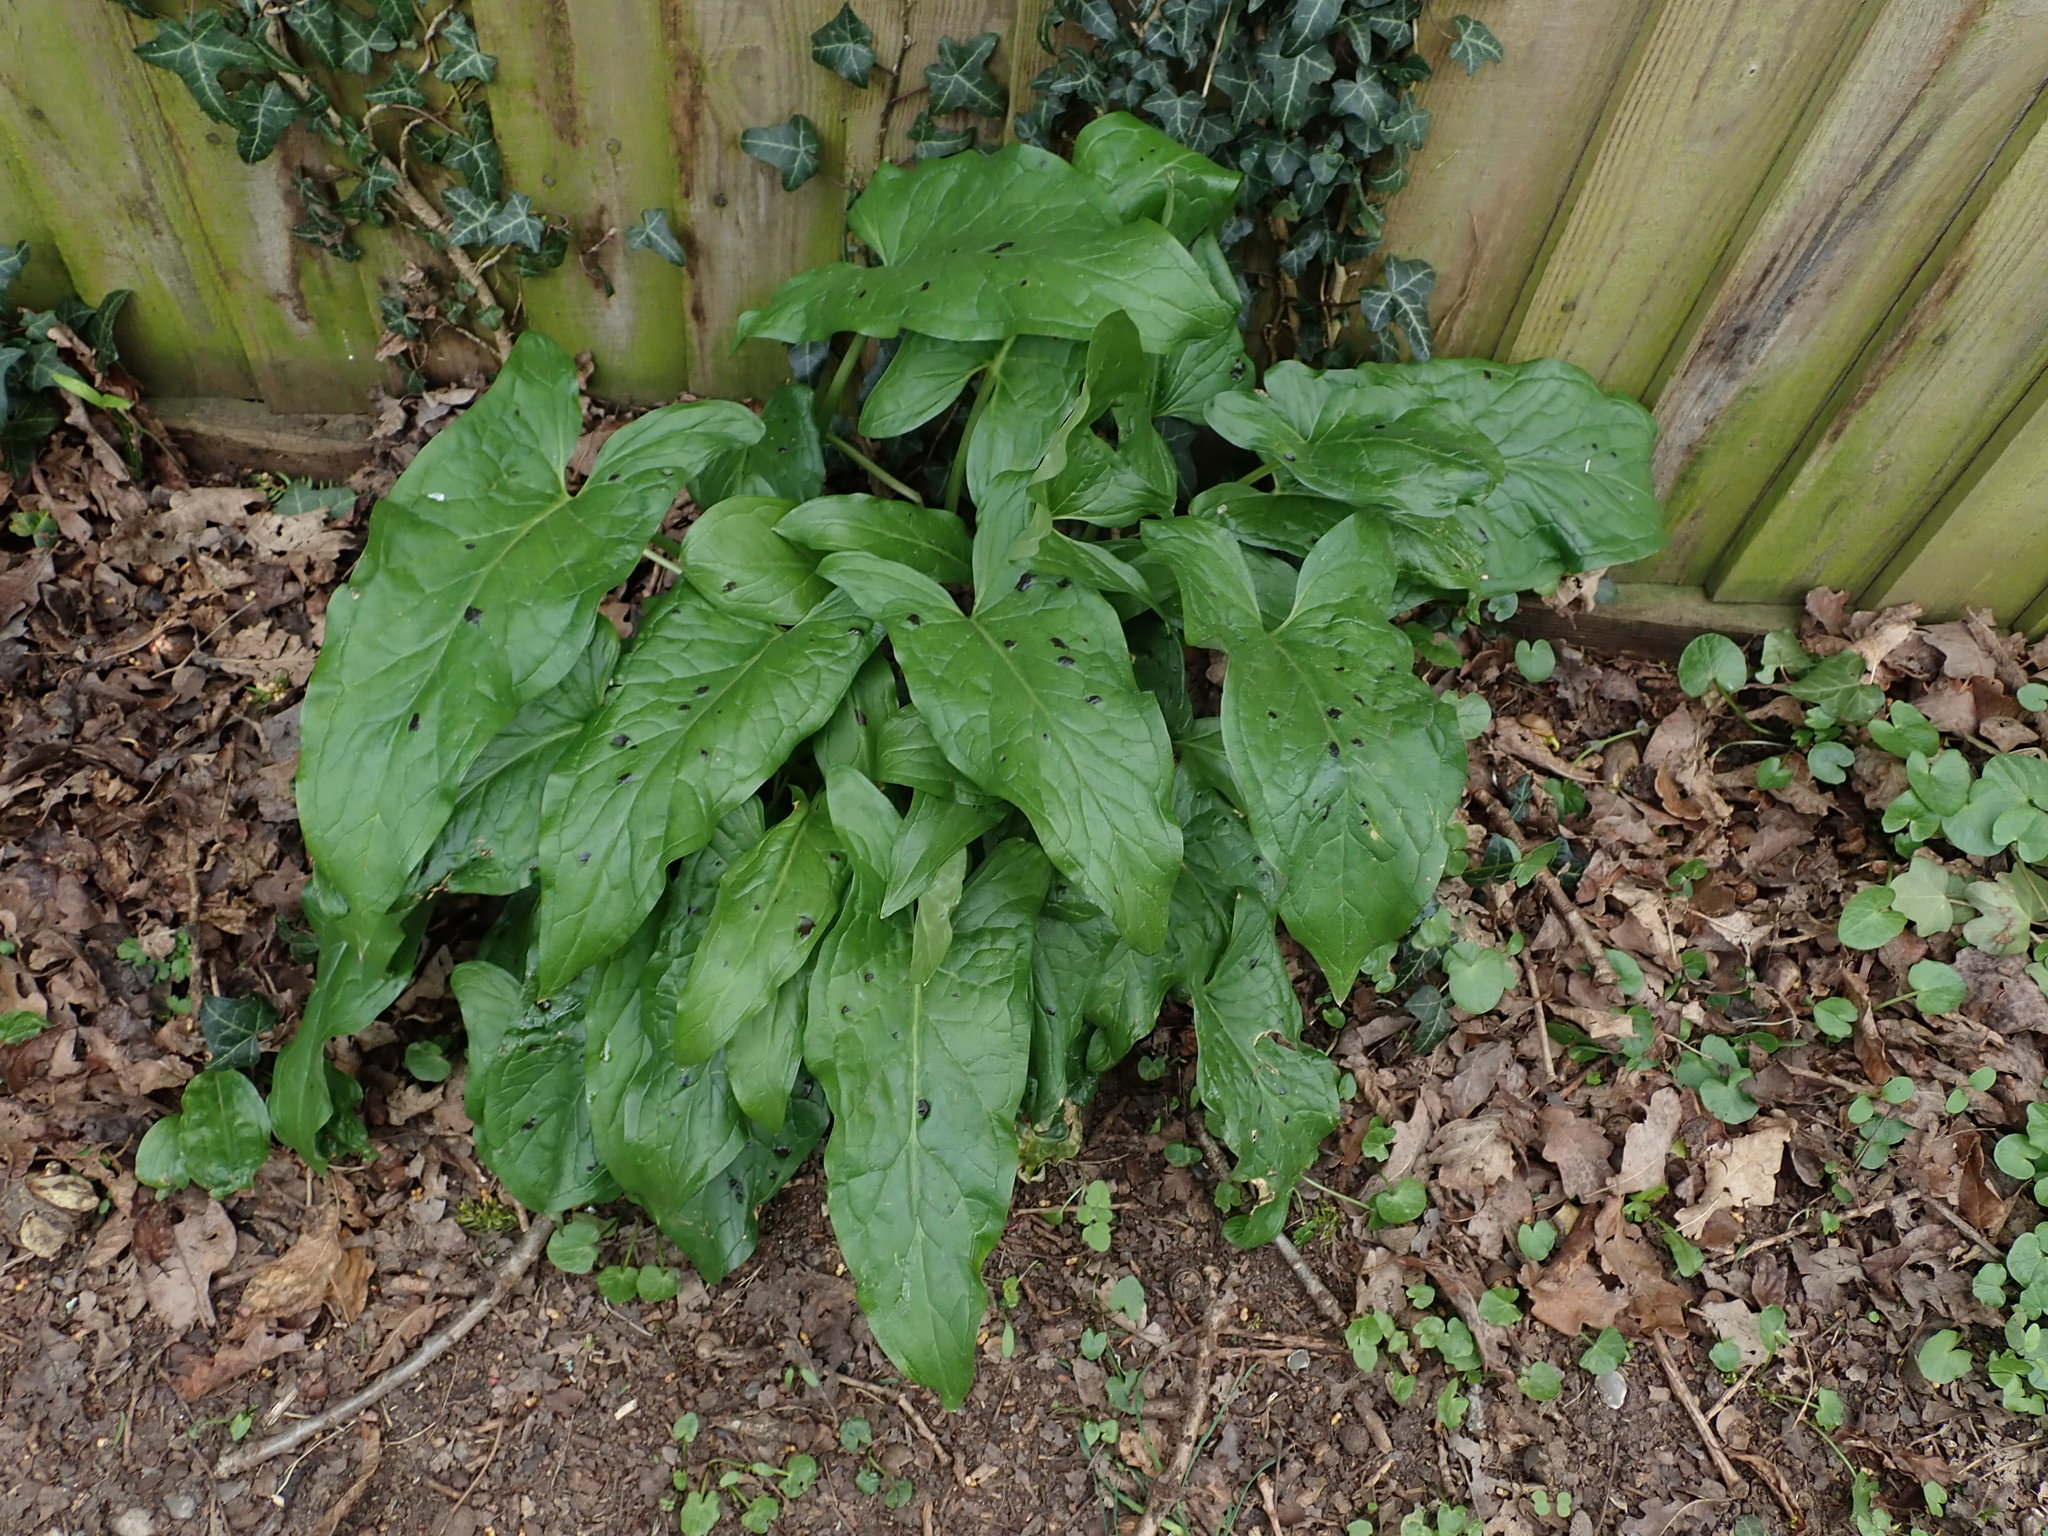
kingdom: Plantae
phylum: Tracheophyta
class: Liliopsida
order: Alismatales
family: Araceae
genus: Arum
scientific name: Arum maculatum
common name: Lords-and-ladies
